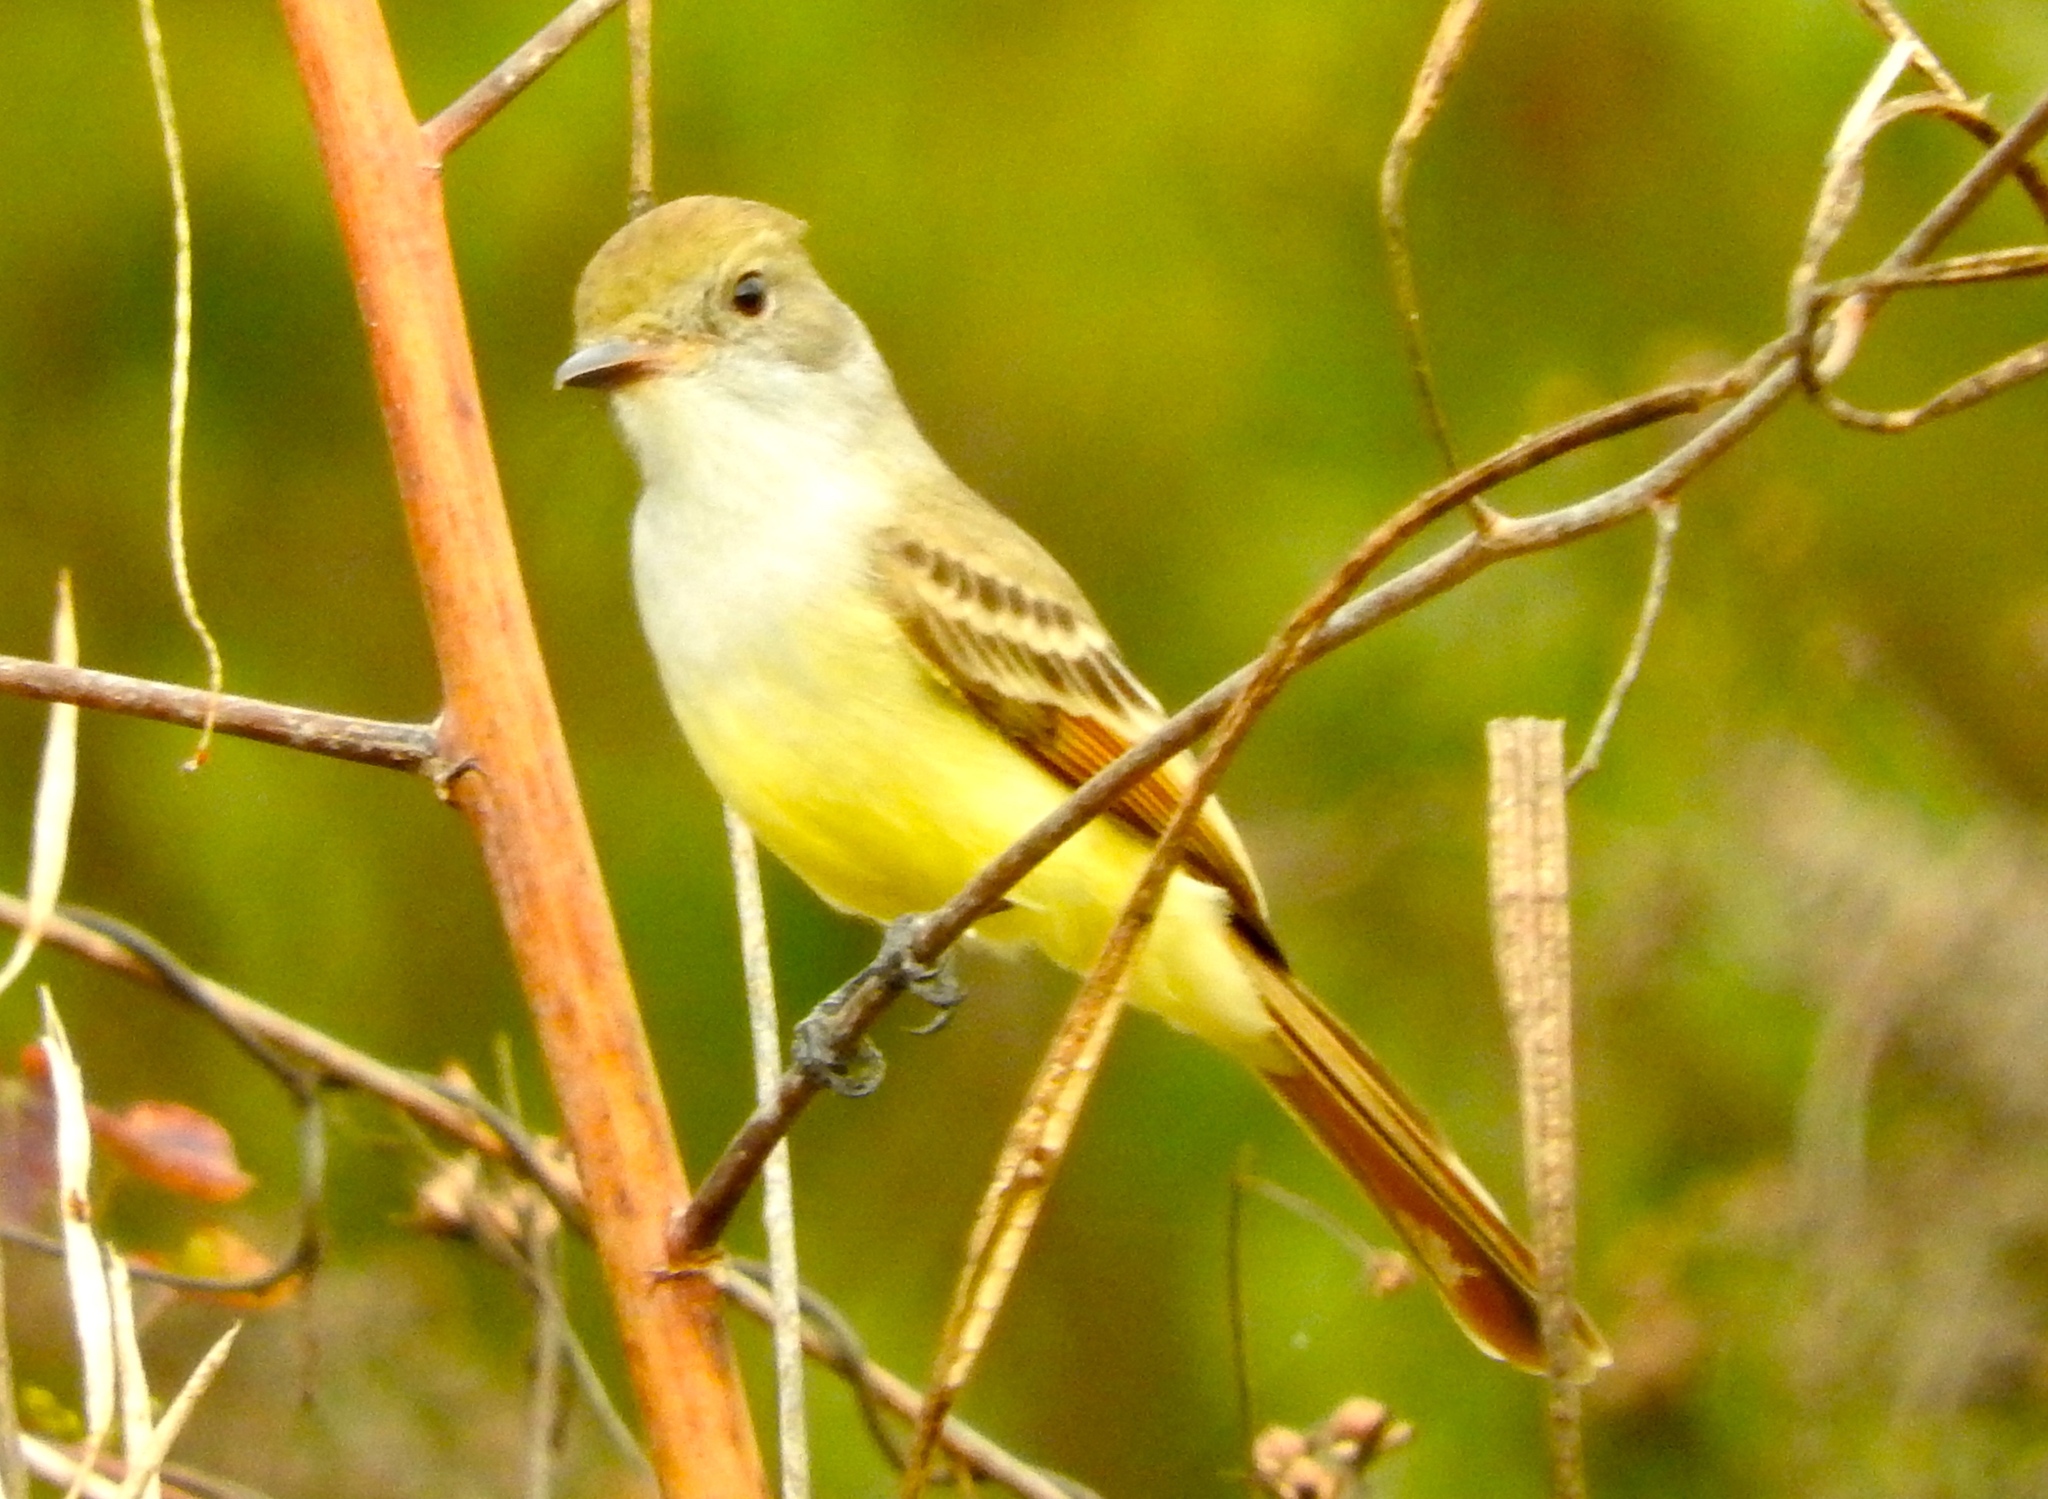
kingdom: Animalia
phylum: Chordata
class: Aves
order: Passeriformes
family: Tyrannidae
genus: Myiarchus
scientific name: Myiarchus
